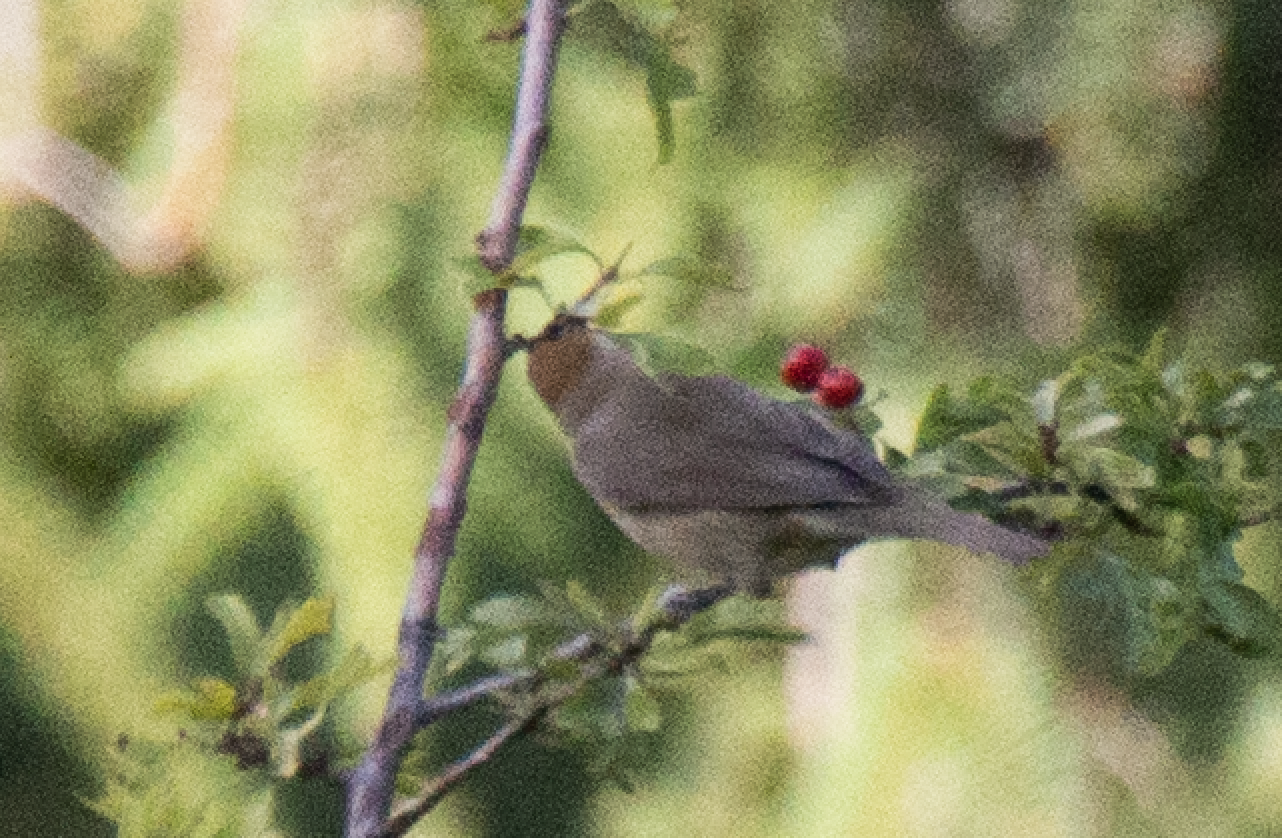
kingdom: Animalia
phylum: Chordata
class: Aves
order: Passeriformes
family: Sylviidae
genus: Sylvia
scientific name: Sylvia atricapilla
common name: Eurasian blackcap
